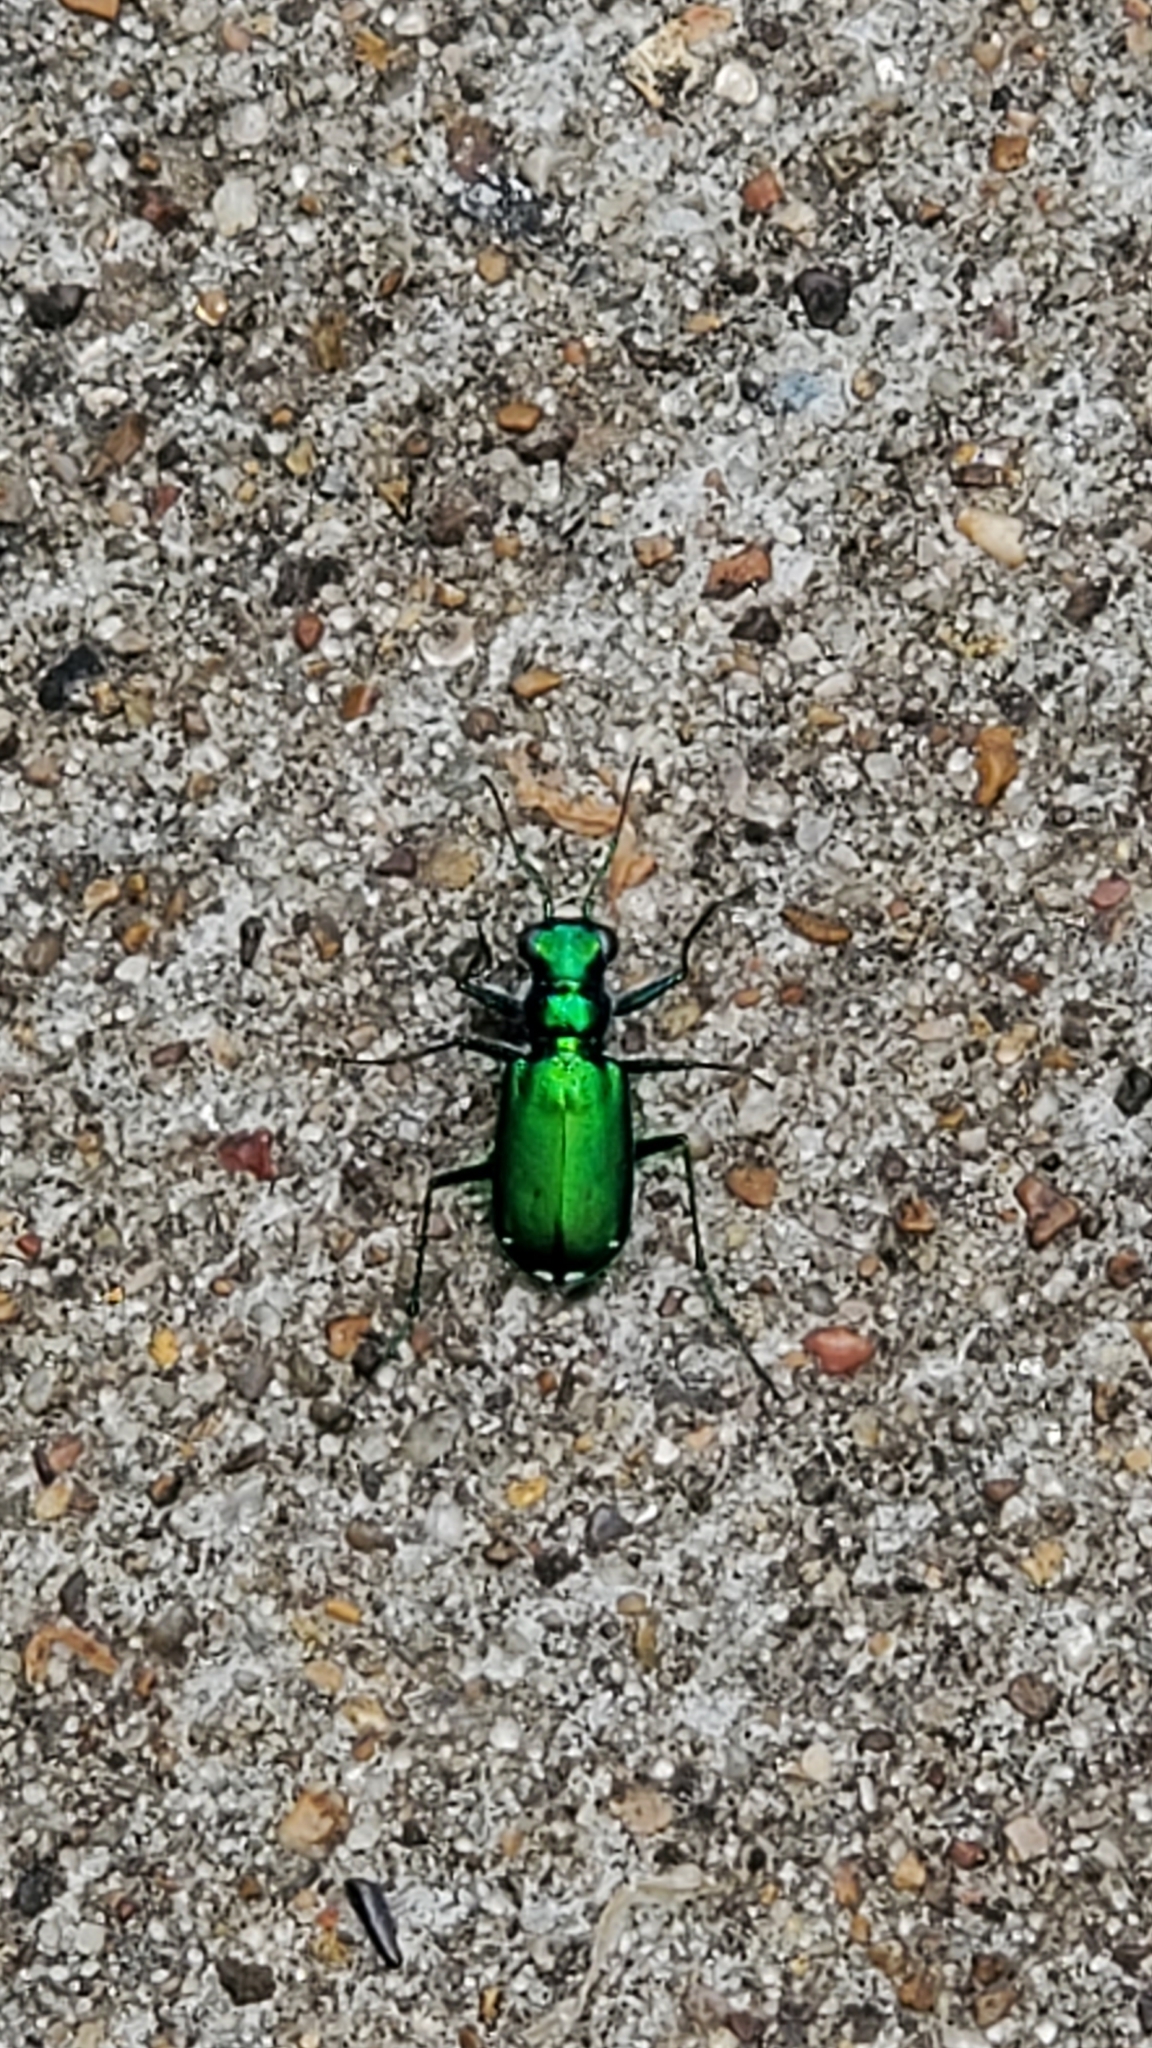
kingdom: Animalia
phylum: Arthropoda
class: Insecta
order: Coleoptera
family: Carabidae
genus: Cicindela
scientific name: Cicindela sexguttata
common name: Six-spotted tiger beetle
